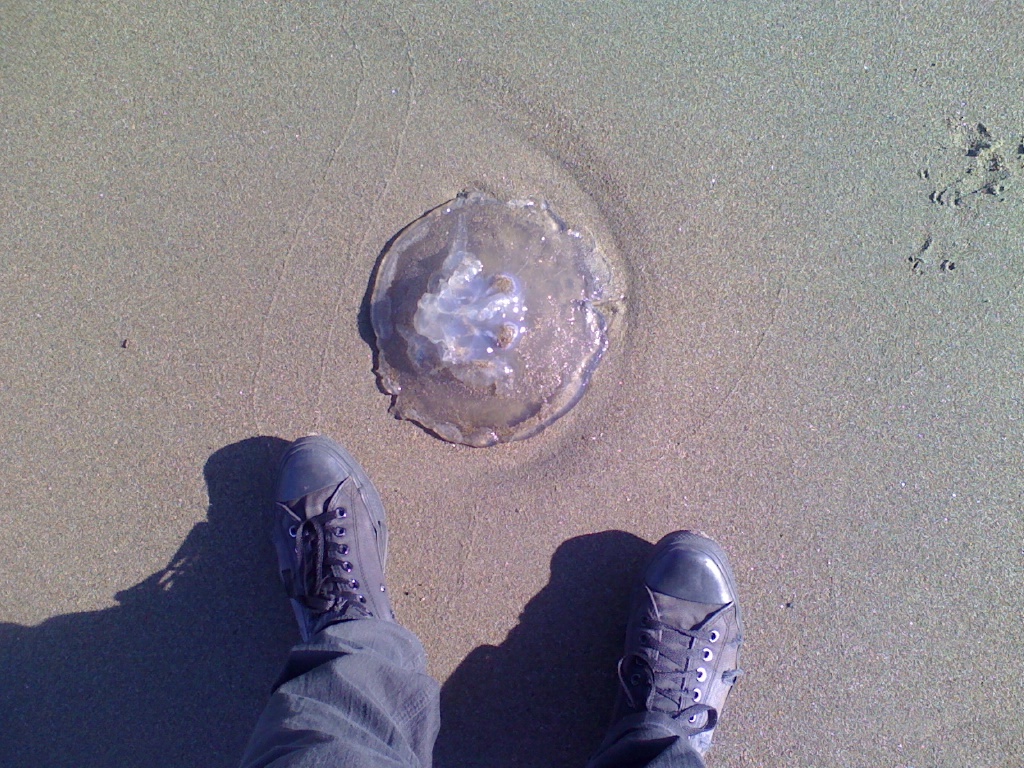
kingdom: Animalia
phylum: Cnidaria
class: Scyphozoa
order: Semaeostomeae
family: Ulmaridae
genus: Aurelia
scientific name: Aurelia labiata
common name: Pacific moon jelly
